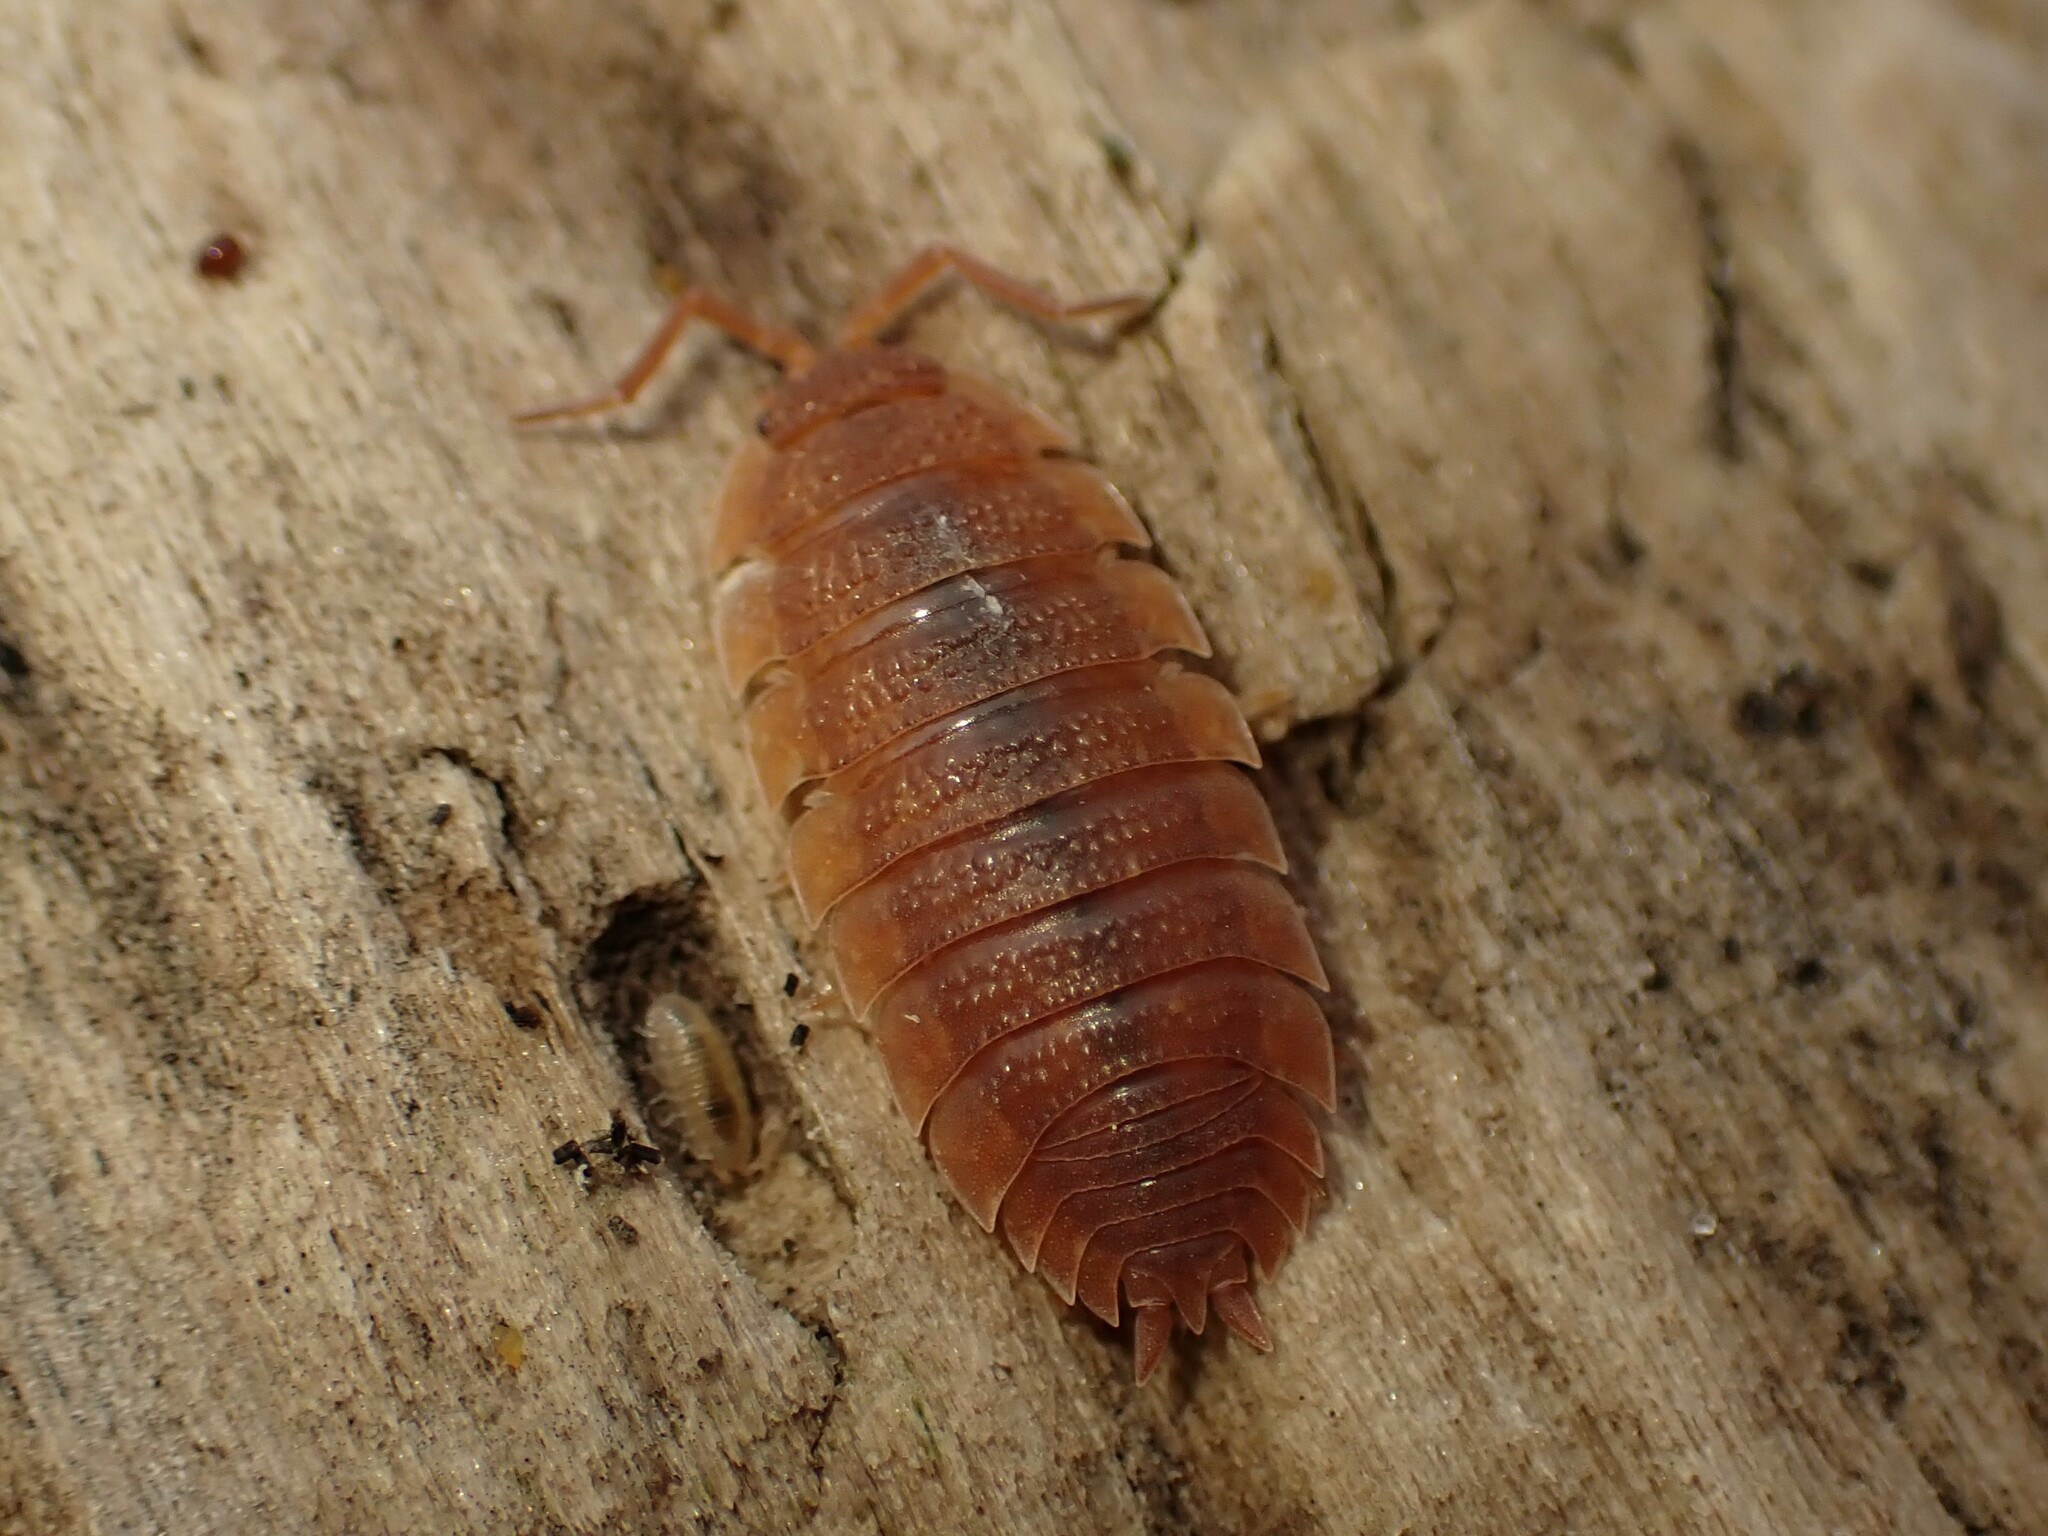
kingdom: Animalia
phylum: Arthropoda
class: Malacostraca
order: Isopoda
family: Porcellionidae
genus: Porcellio
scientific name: Porcellio scaber
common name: Common rough woodlouse
